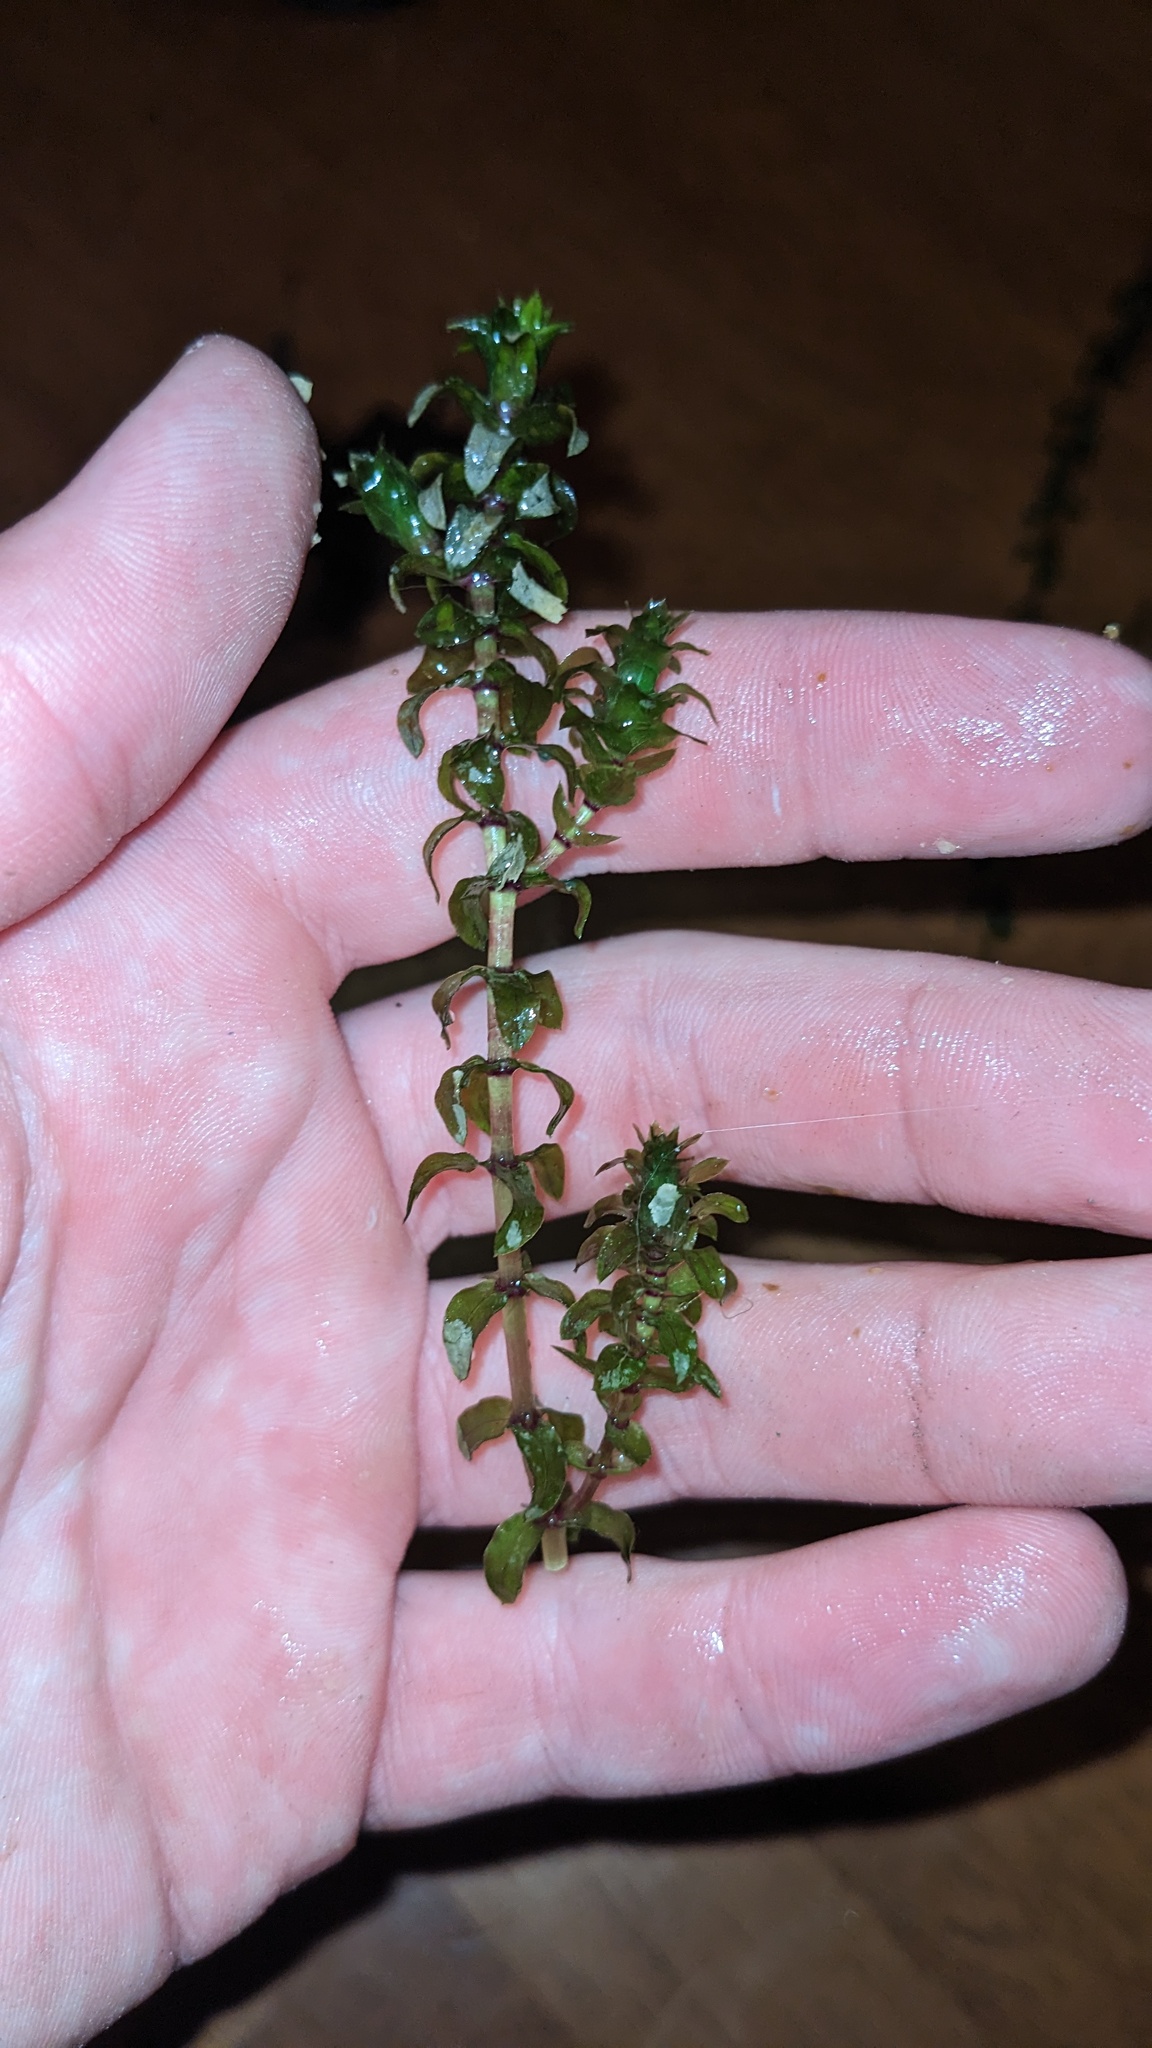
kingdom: Plantae
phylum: Tracheophyta
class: Liliopsida
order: Alismatales
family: Hydrocharitaceae
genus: Elodea
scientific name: Elodea canadensis
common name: Canadian waterweed
